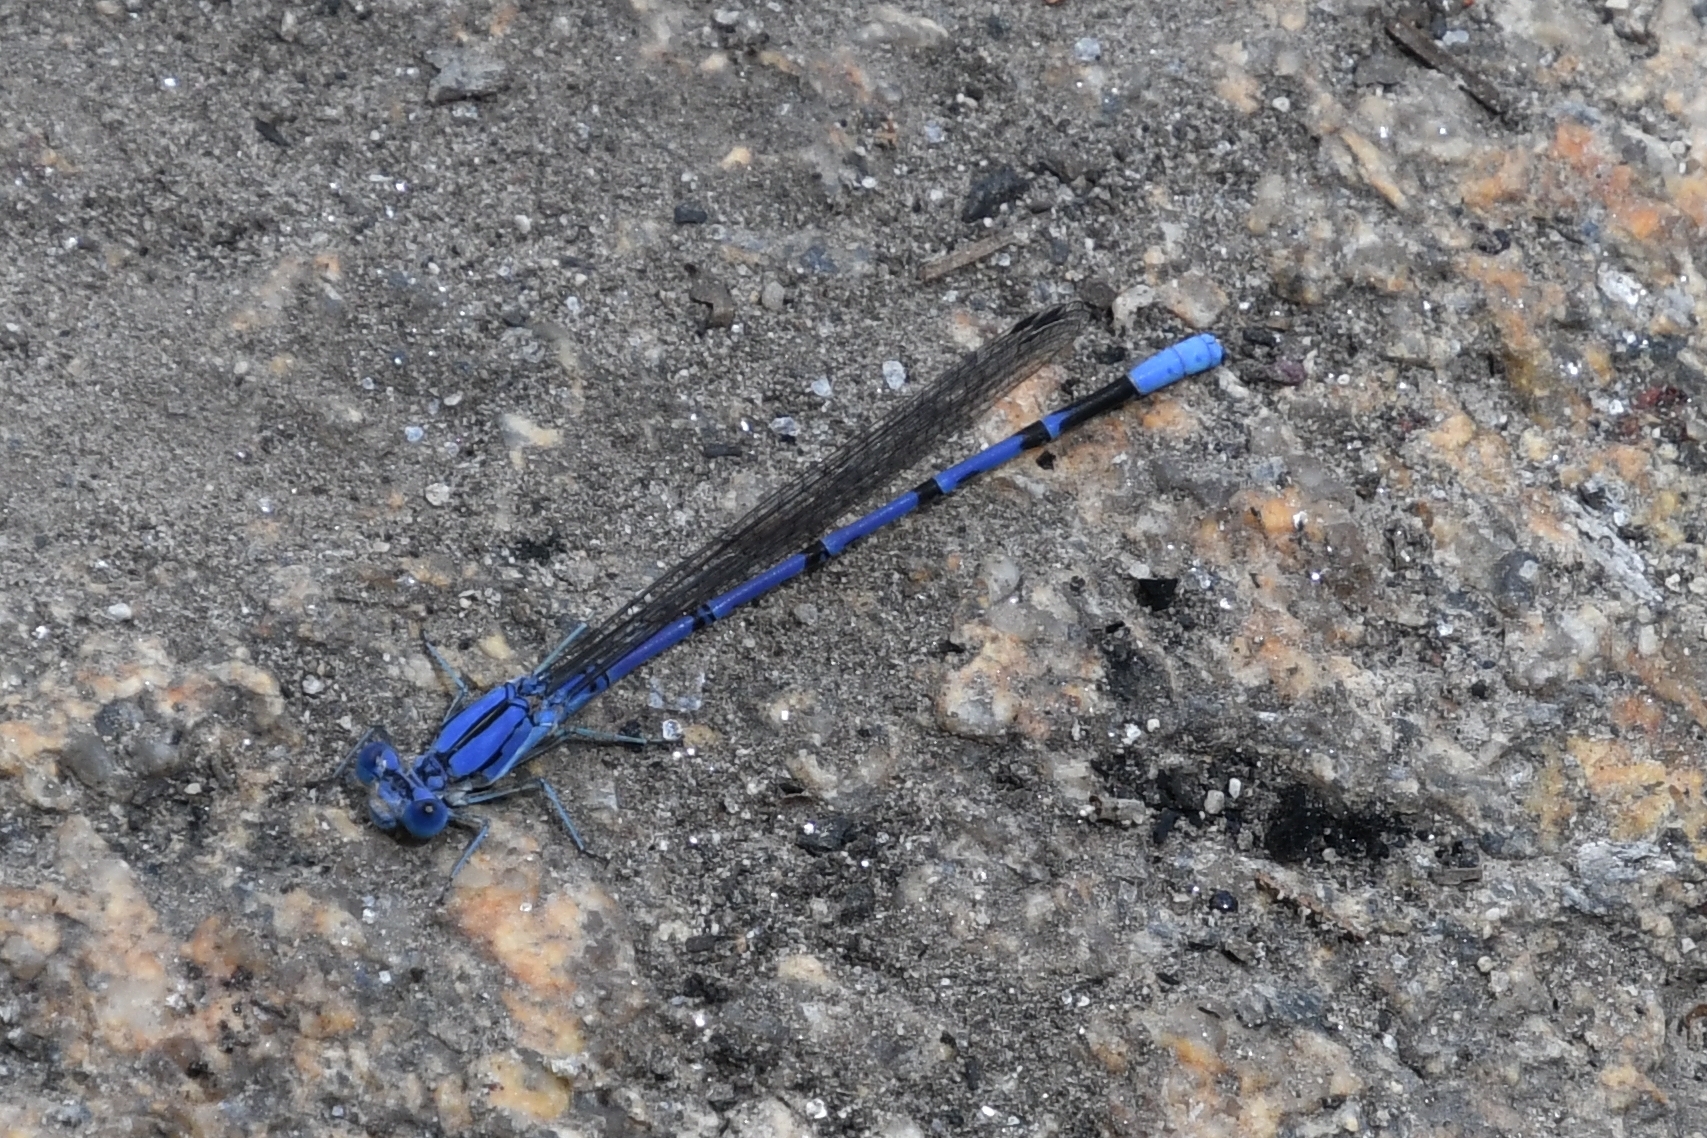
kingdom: Animalia
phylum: Arthropoda
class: Insecta
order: Odonata
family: Coenagrionidae
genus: Argia
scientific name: Argia munda
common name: Apache dancer
